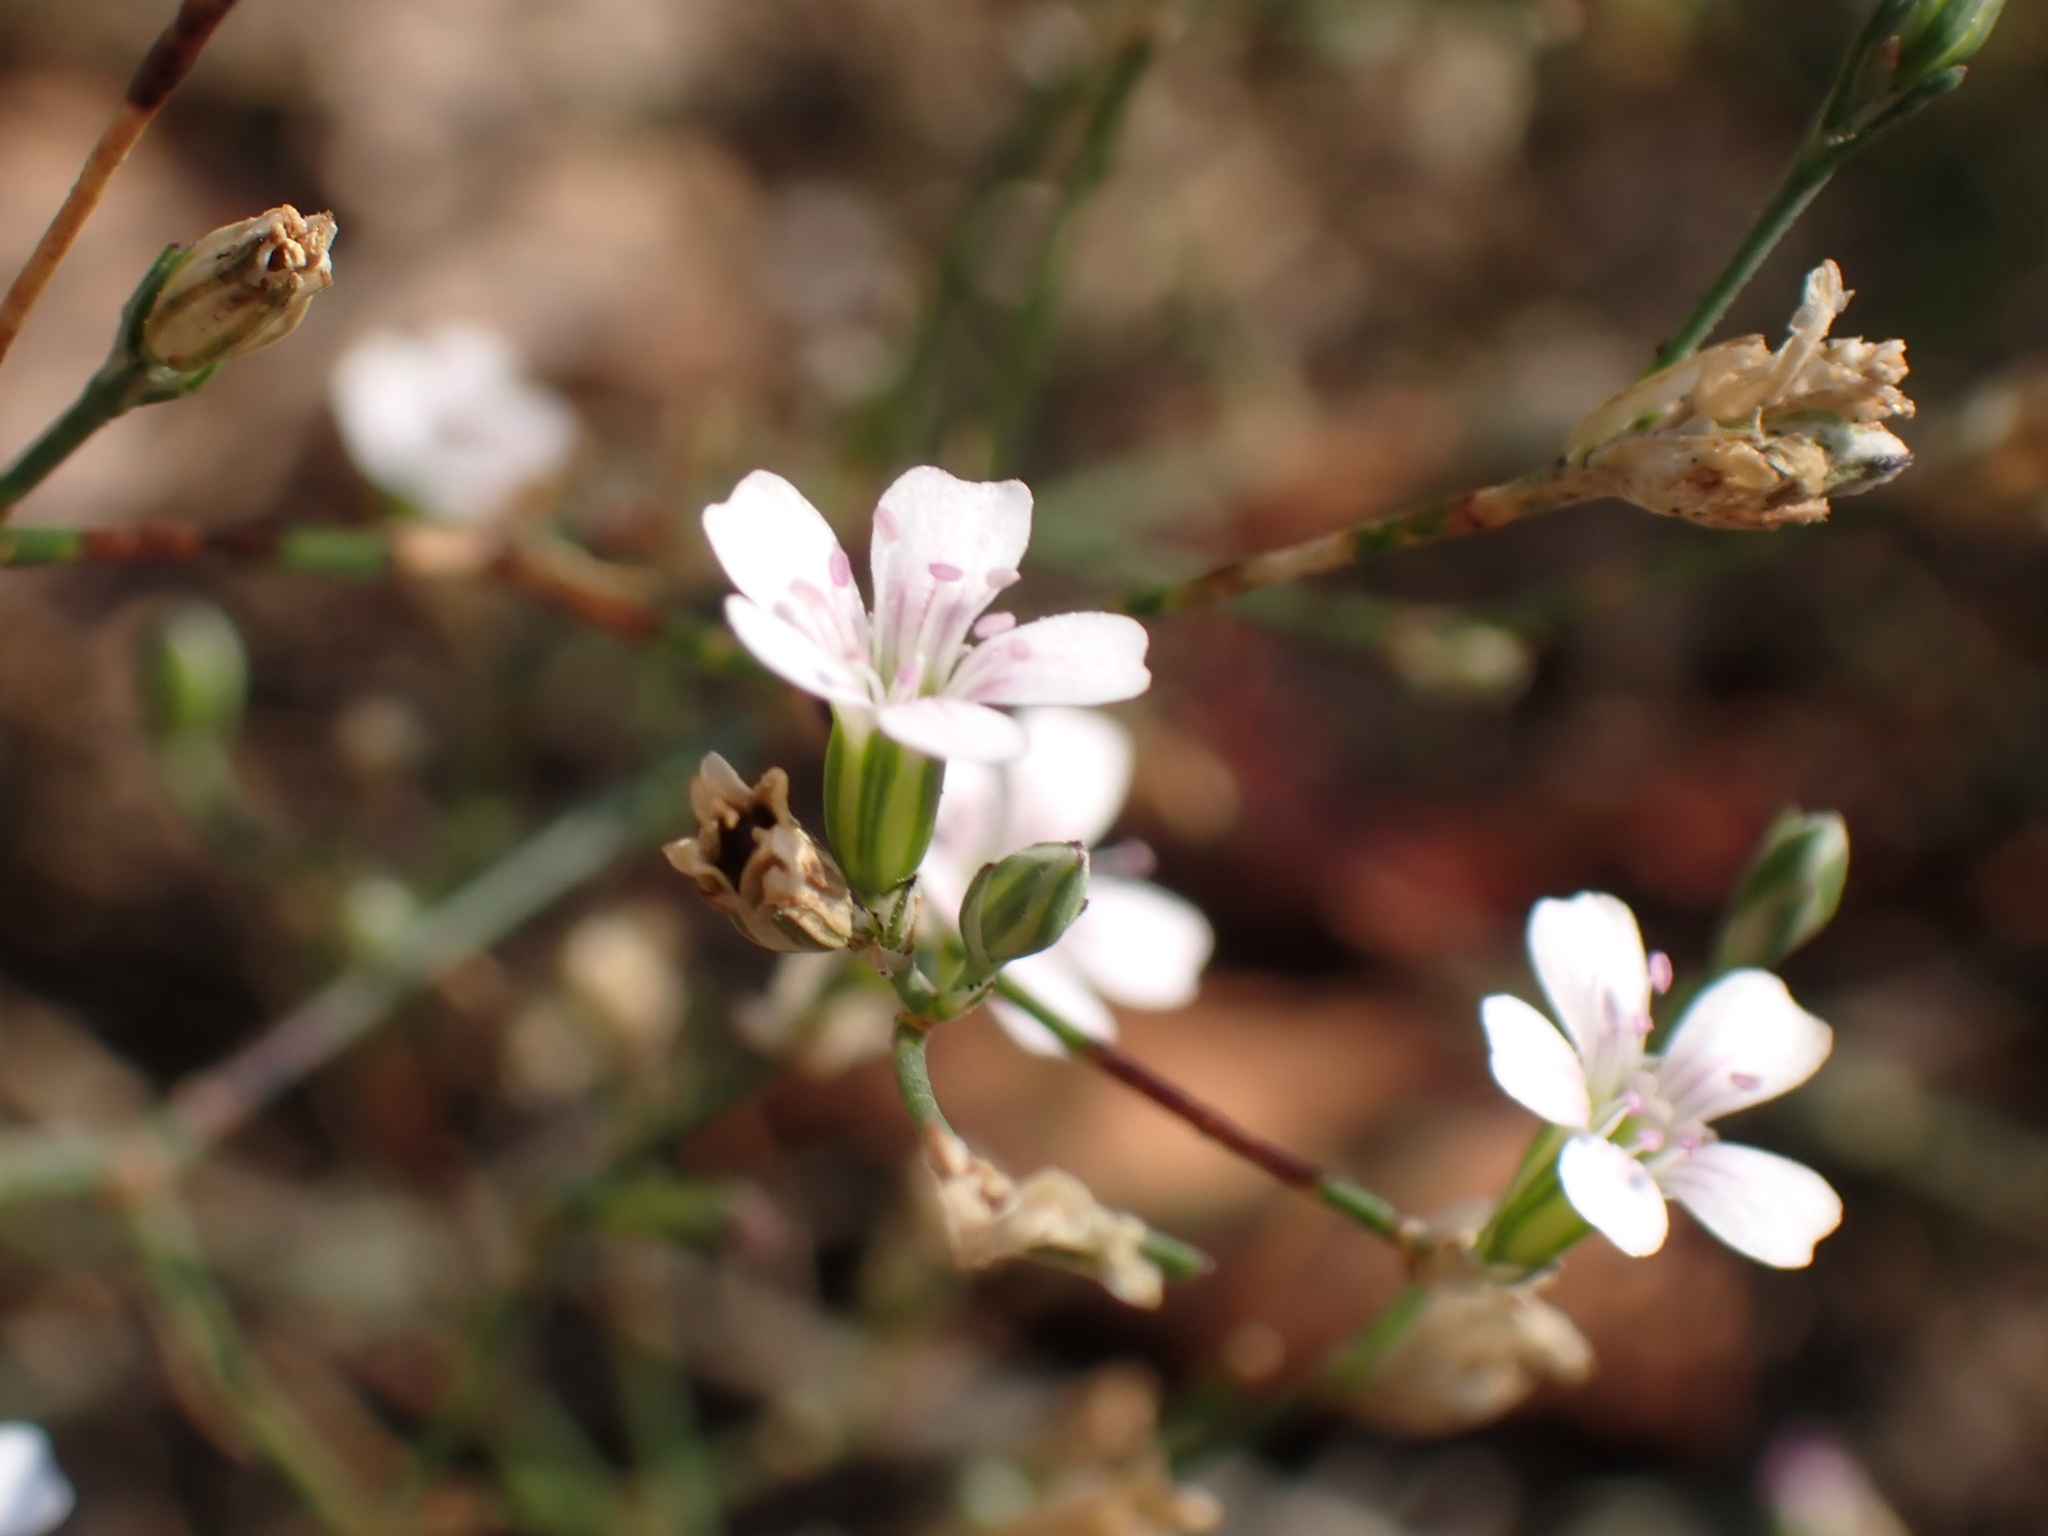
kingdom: Plantae
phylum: Tracheophyta
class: Magnoliopsida
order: Caryophyllales
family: Caryophyllaceae
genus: Petrorhagia
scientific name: Petrorhagia saxifraga
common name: Tunicflower
